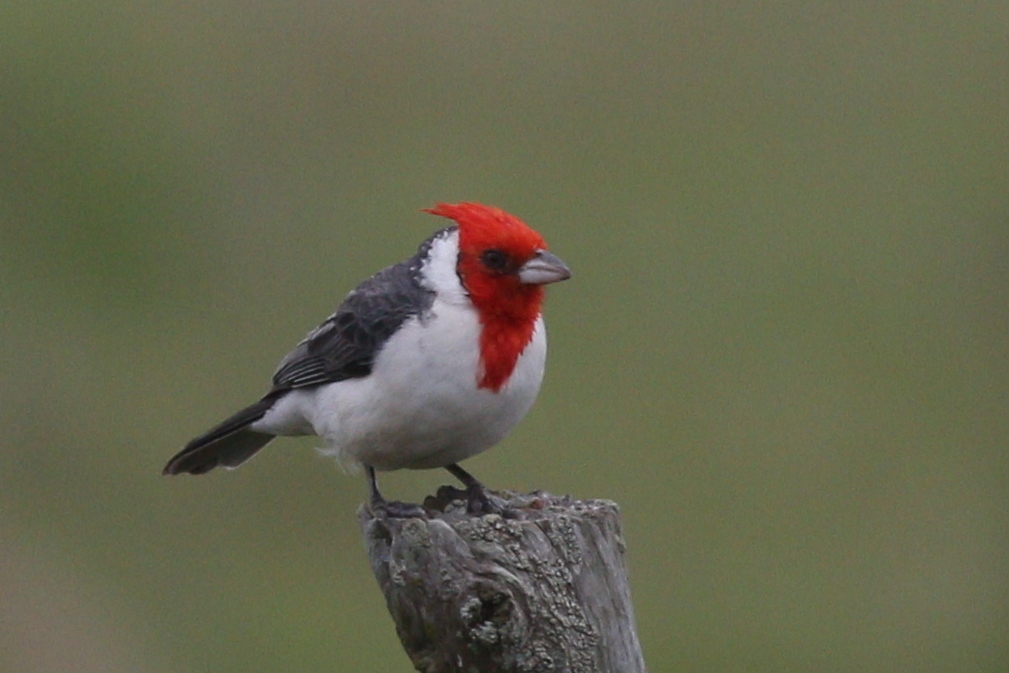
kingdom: Animalia
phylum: Chordata
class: Aves
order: Passeriformes
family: Thraupidae
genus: Paroaria
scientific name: Paroaria coronata
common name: Red-crested cardinal
